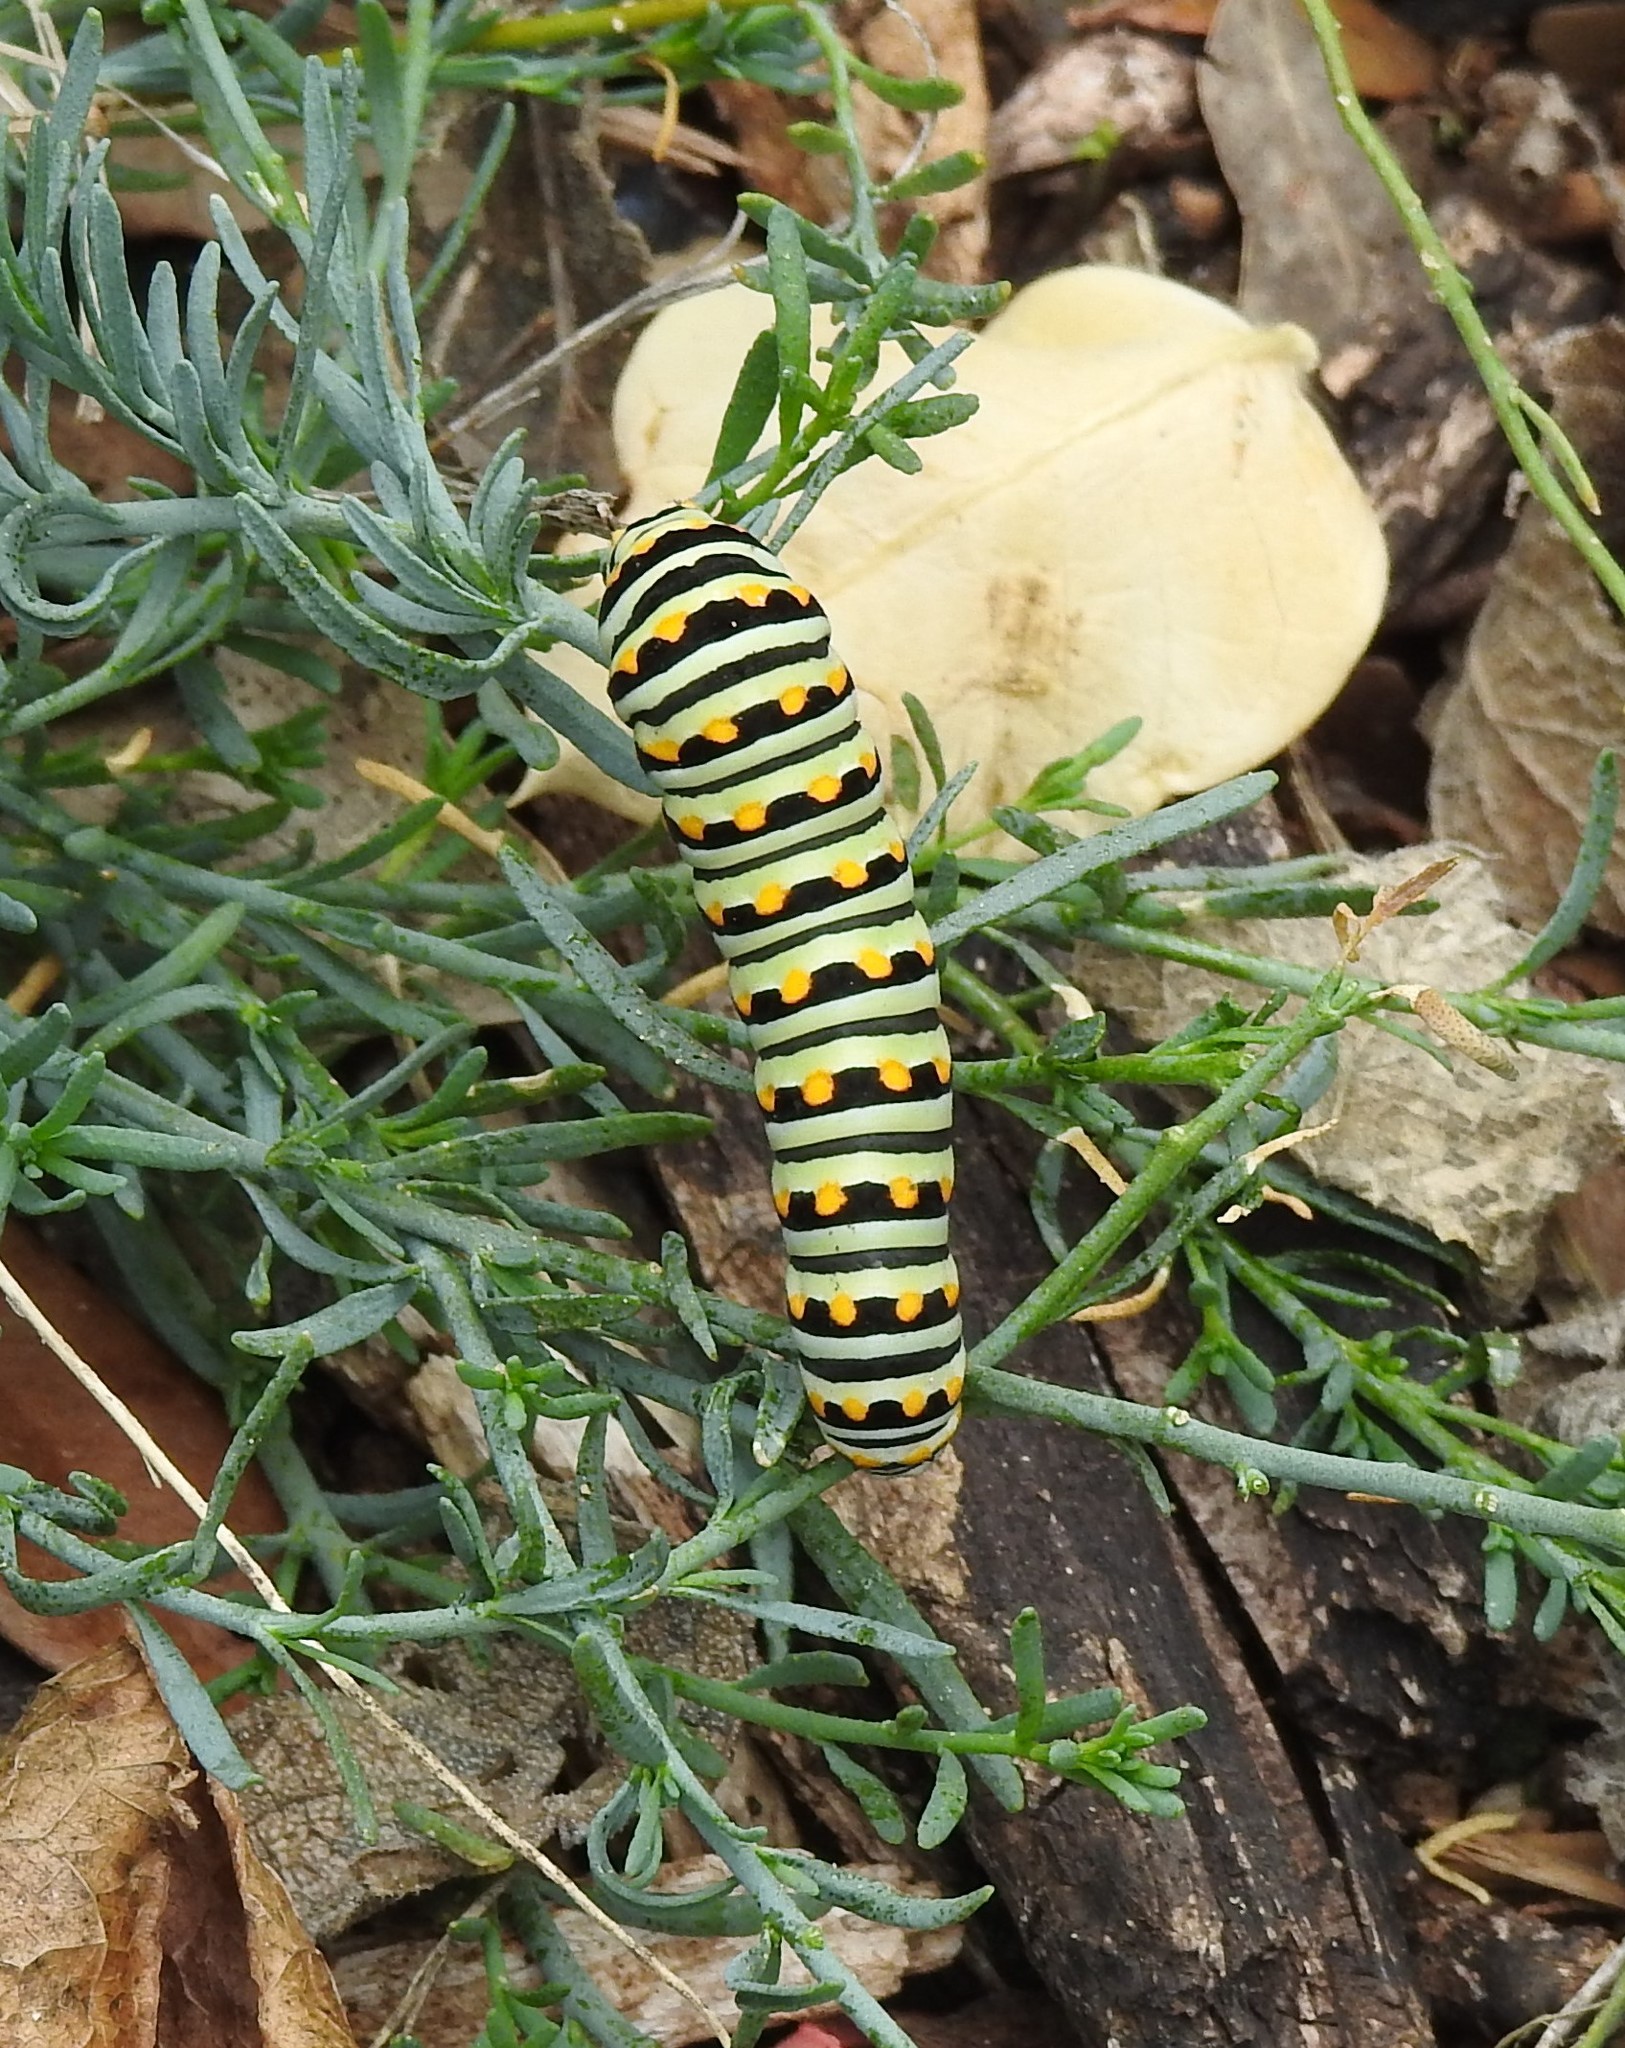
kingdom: Animalia
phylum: Arthropoda
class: Insecta
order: Lepidoptera
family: Papilionidae
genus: Papilio
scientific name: Papilio polyxenes
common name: Black swallowtail
